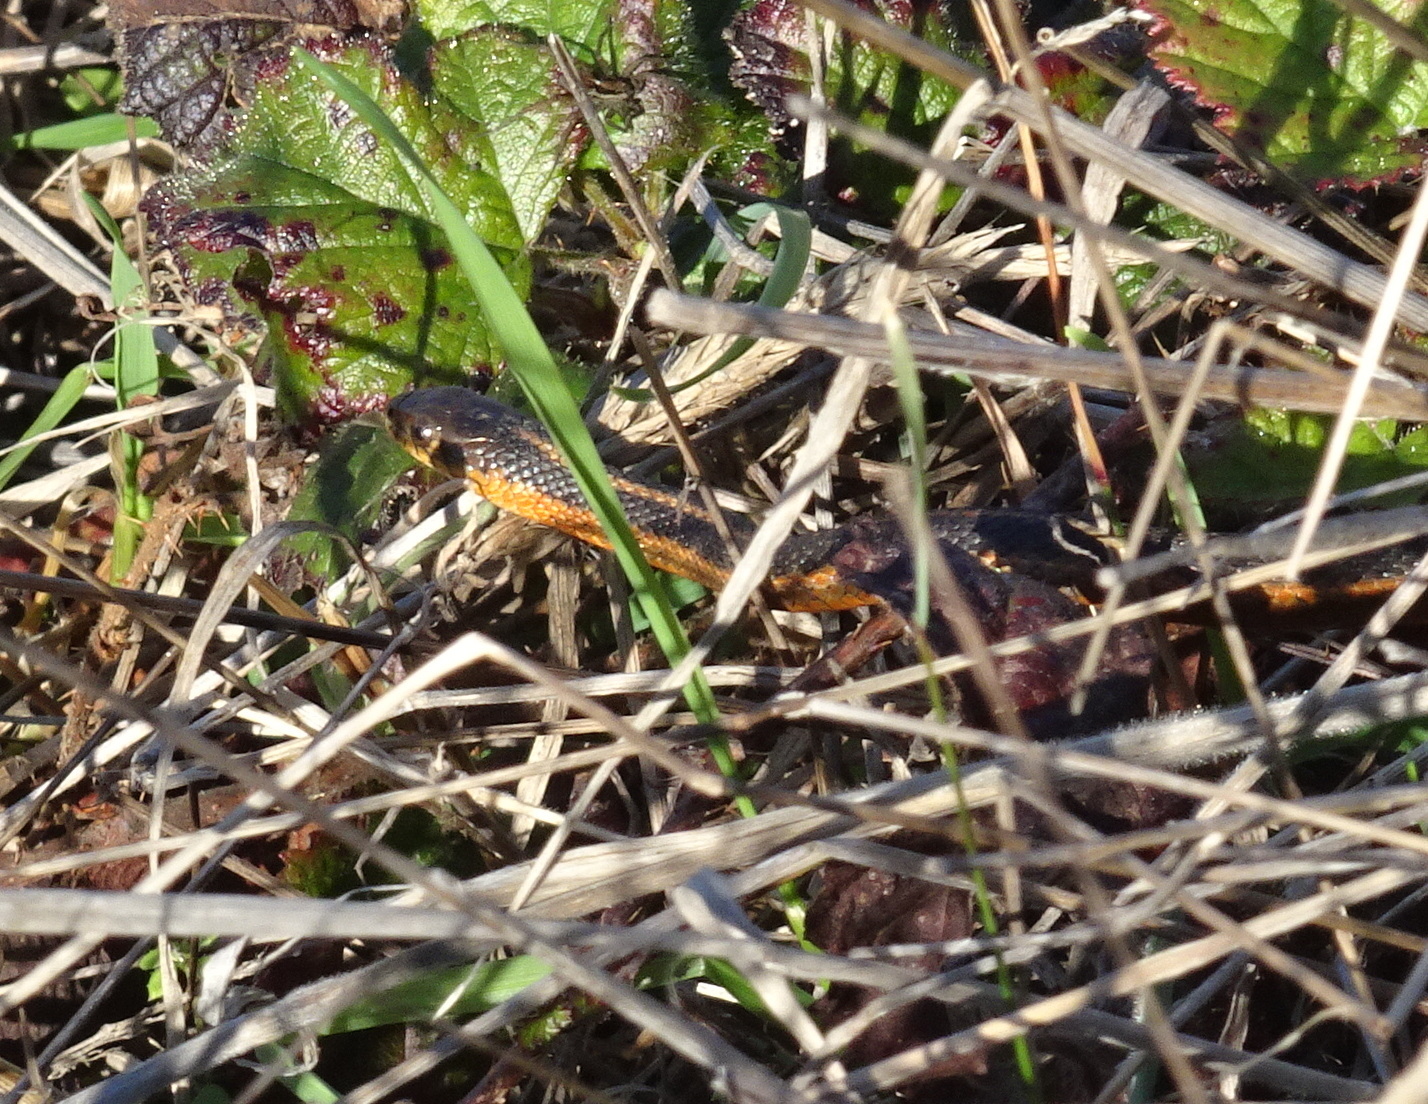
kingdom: Animalia
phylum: Chordata
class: Squamata
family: Colubridae
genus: Thamnophis
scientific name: Thamnophis atratus
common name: Pacific coast aquatic garter snake
